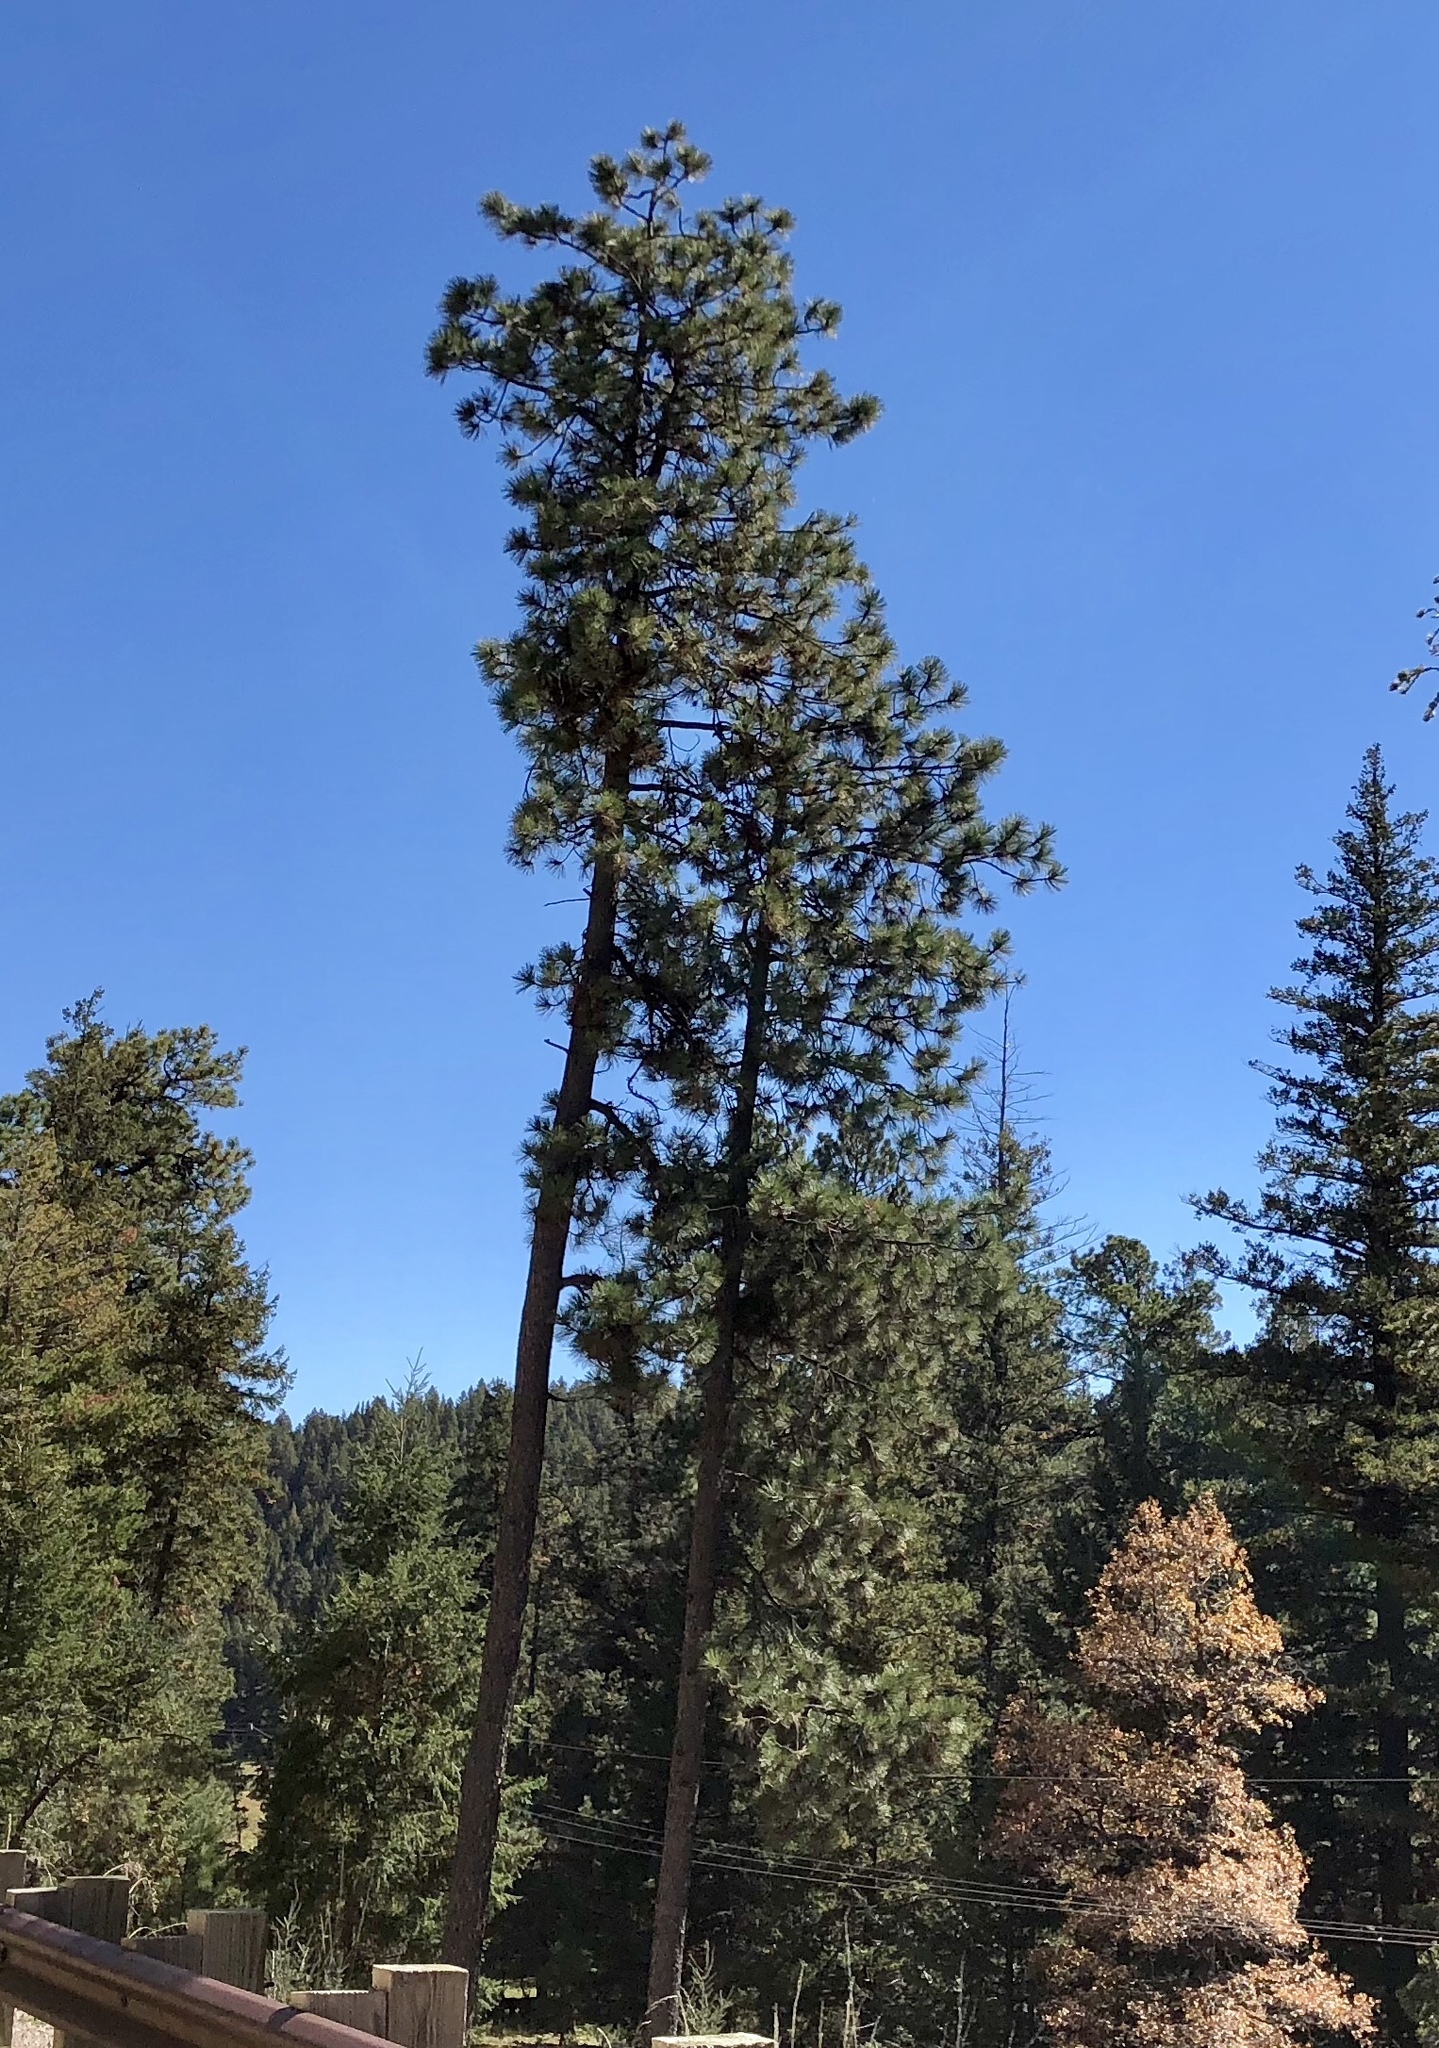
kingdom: Plantae
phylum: Tracheophyta
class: Pinopsida
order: Pinales
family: Pinaceae
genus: Pinus
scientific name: Pinus ponderosa
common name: Western yellow-pine
